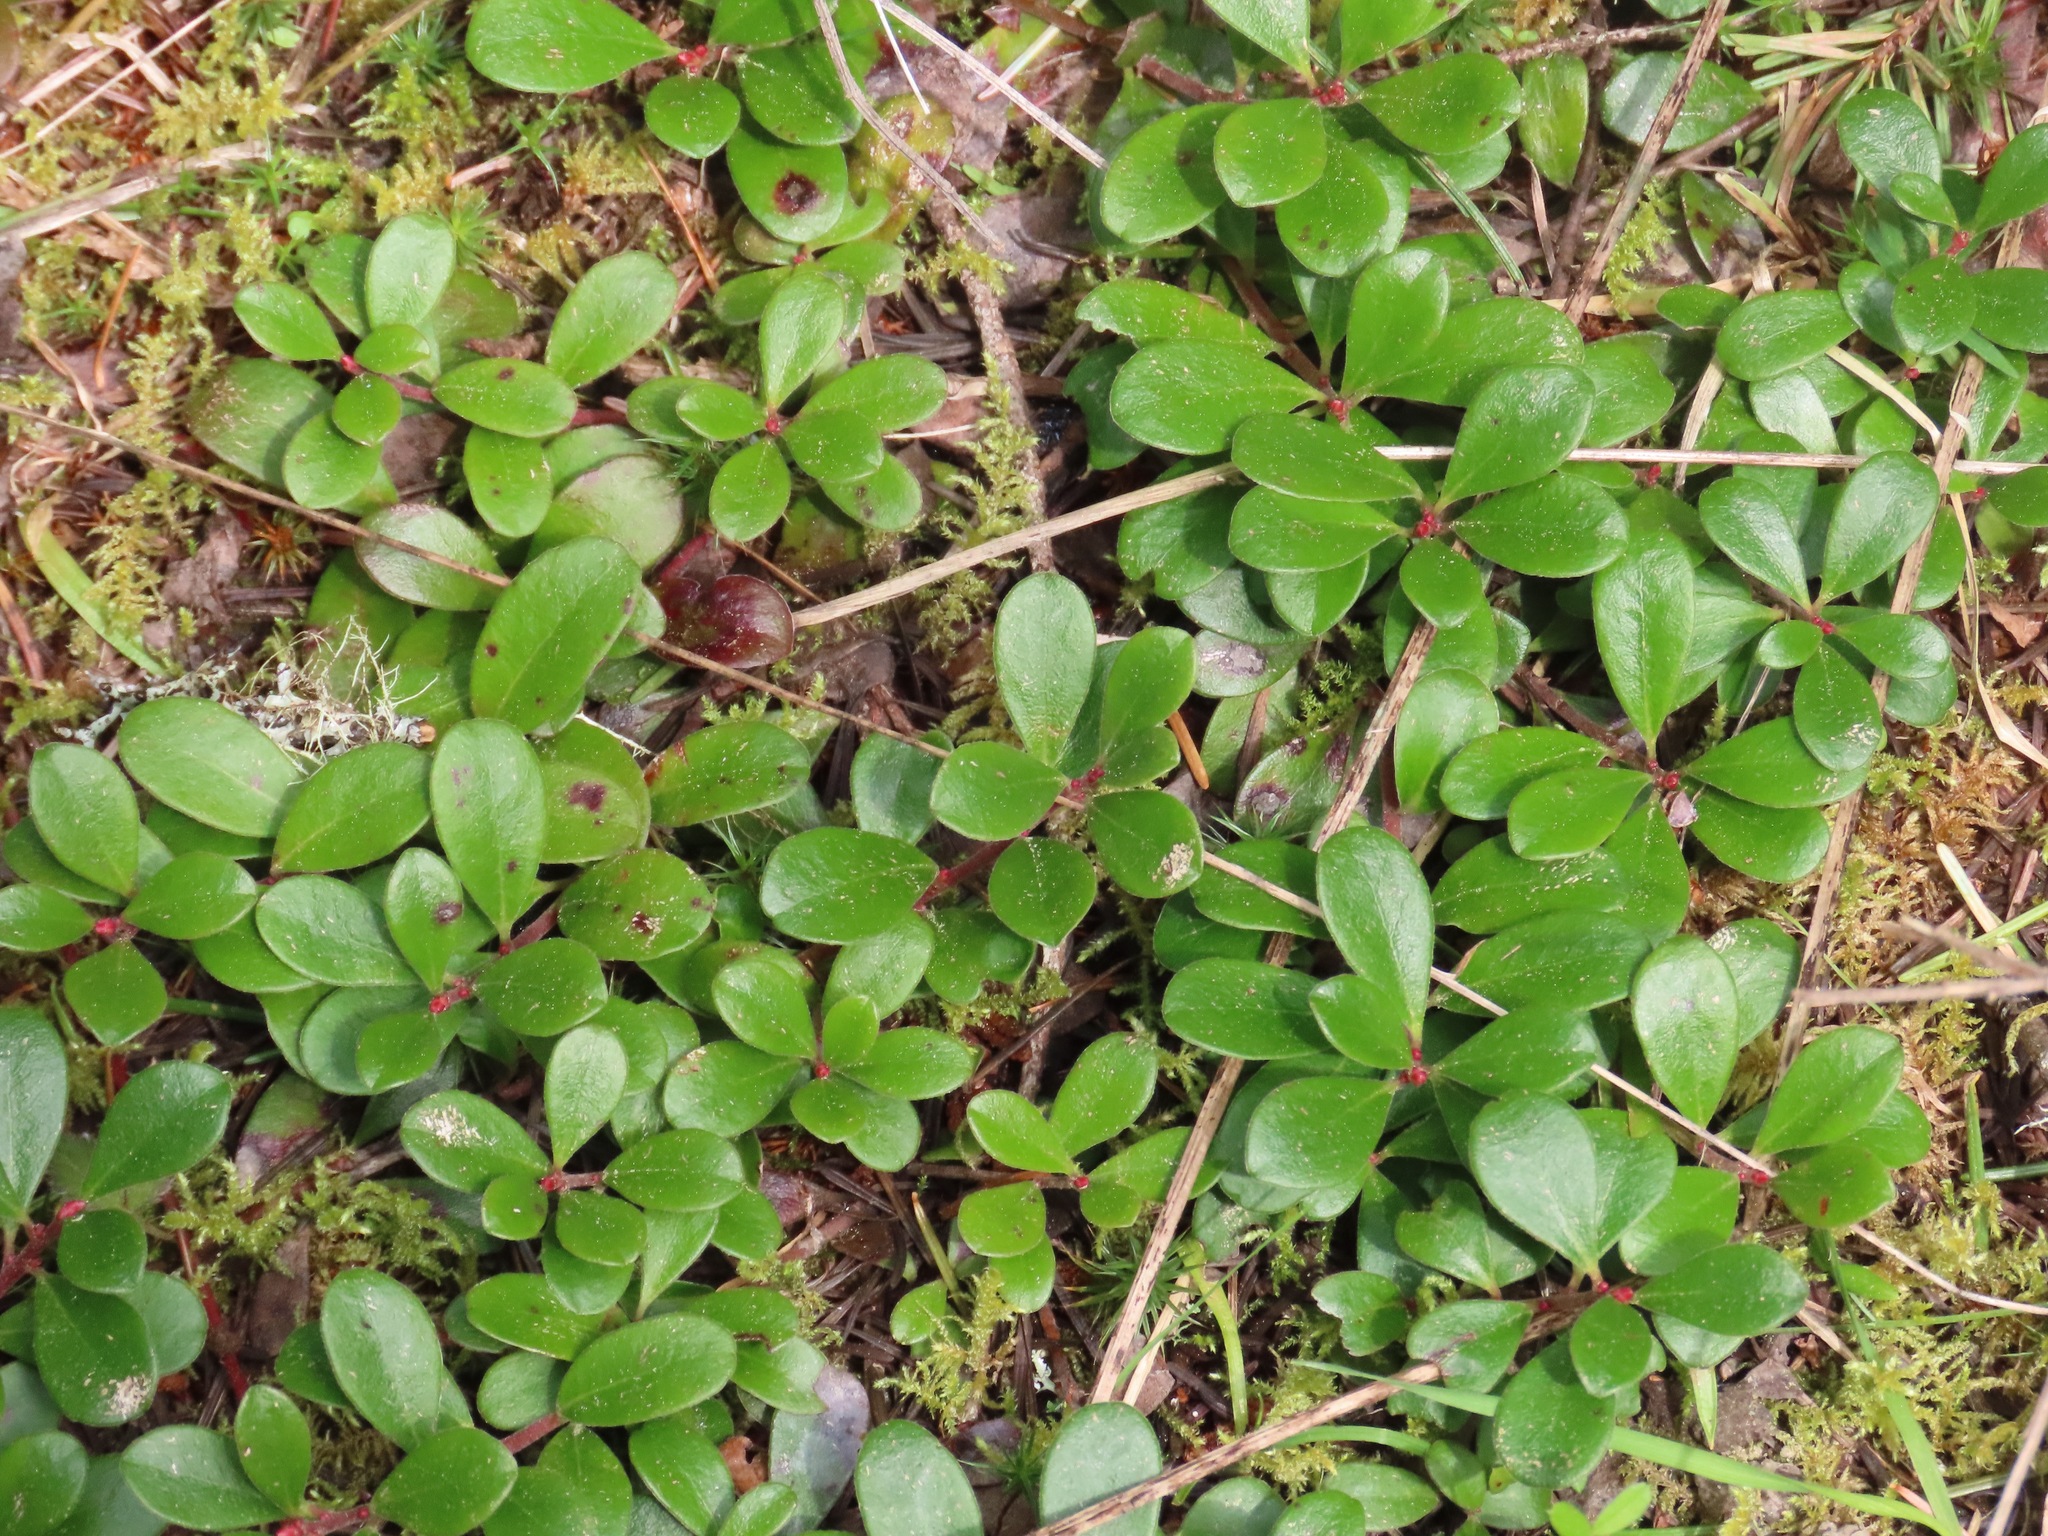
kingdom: Plantae
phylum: Tracheophyta
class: Magnoliopsida
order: Ericales
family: Ericaceae
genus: Arctostaphylos
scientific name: Arctostaphylos uva-ursi
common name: Bearberry
